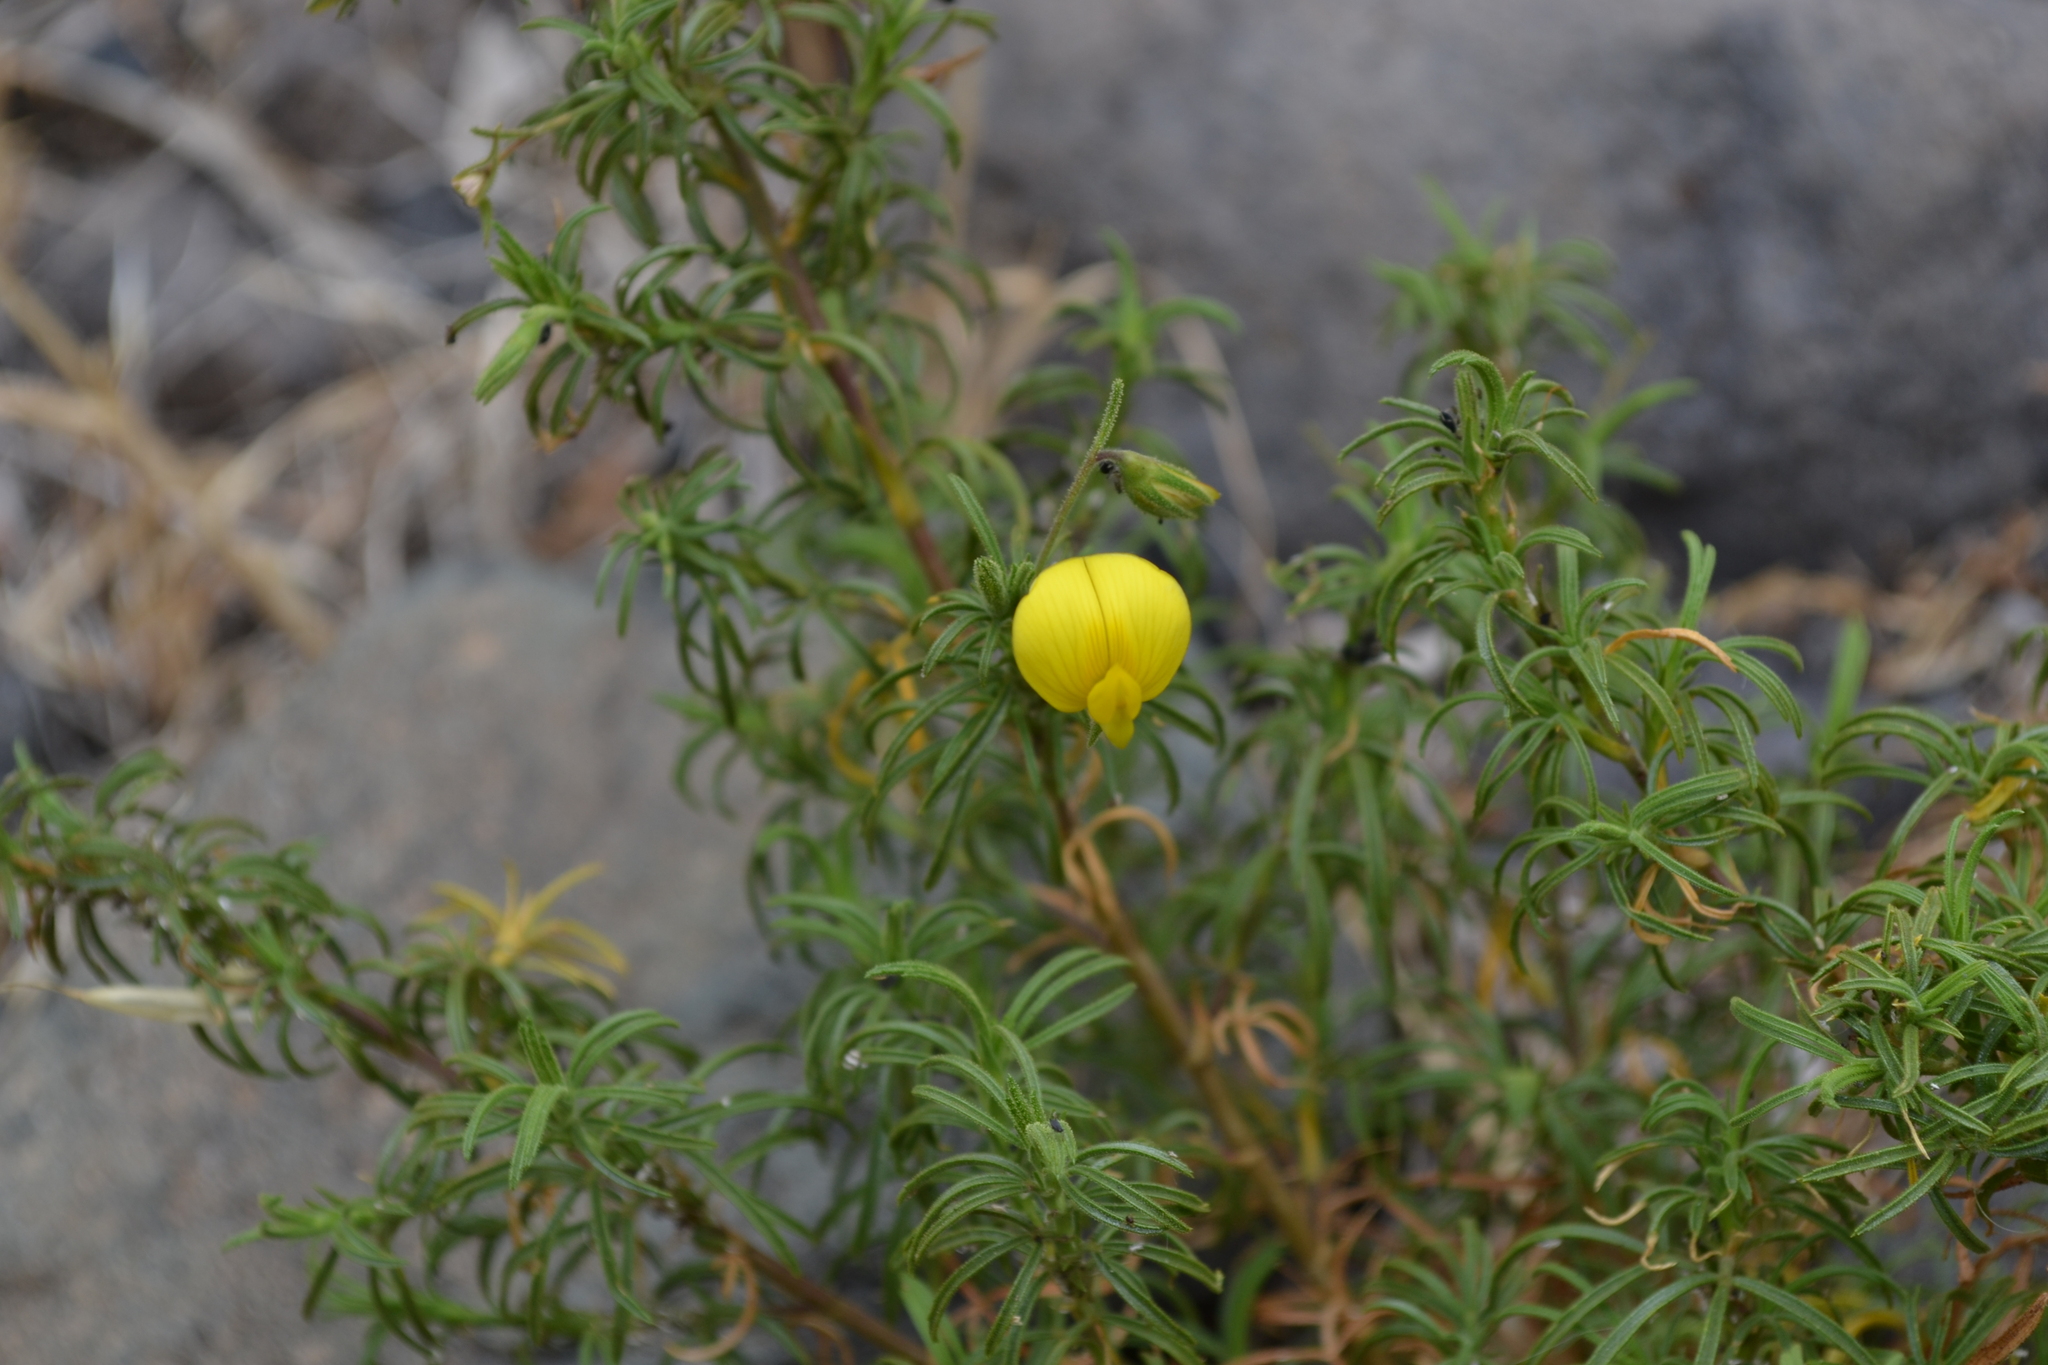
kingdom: Plantae
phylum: Tracheophyta
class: Magnoliopsida
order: Fabales
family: Fabaceae
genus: Ononis
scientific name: Ononis angustissima
